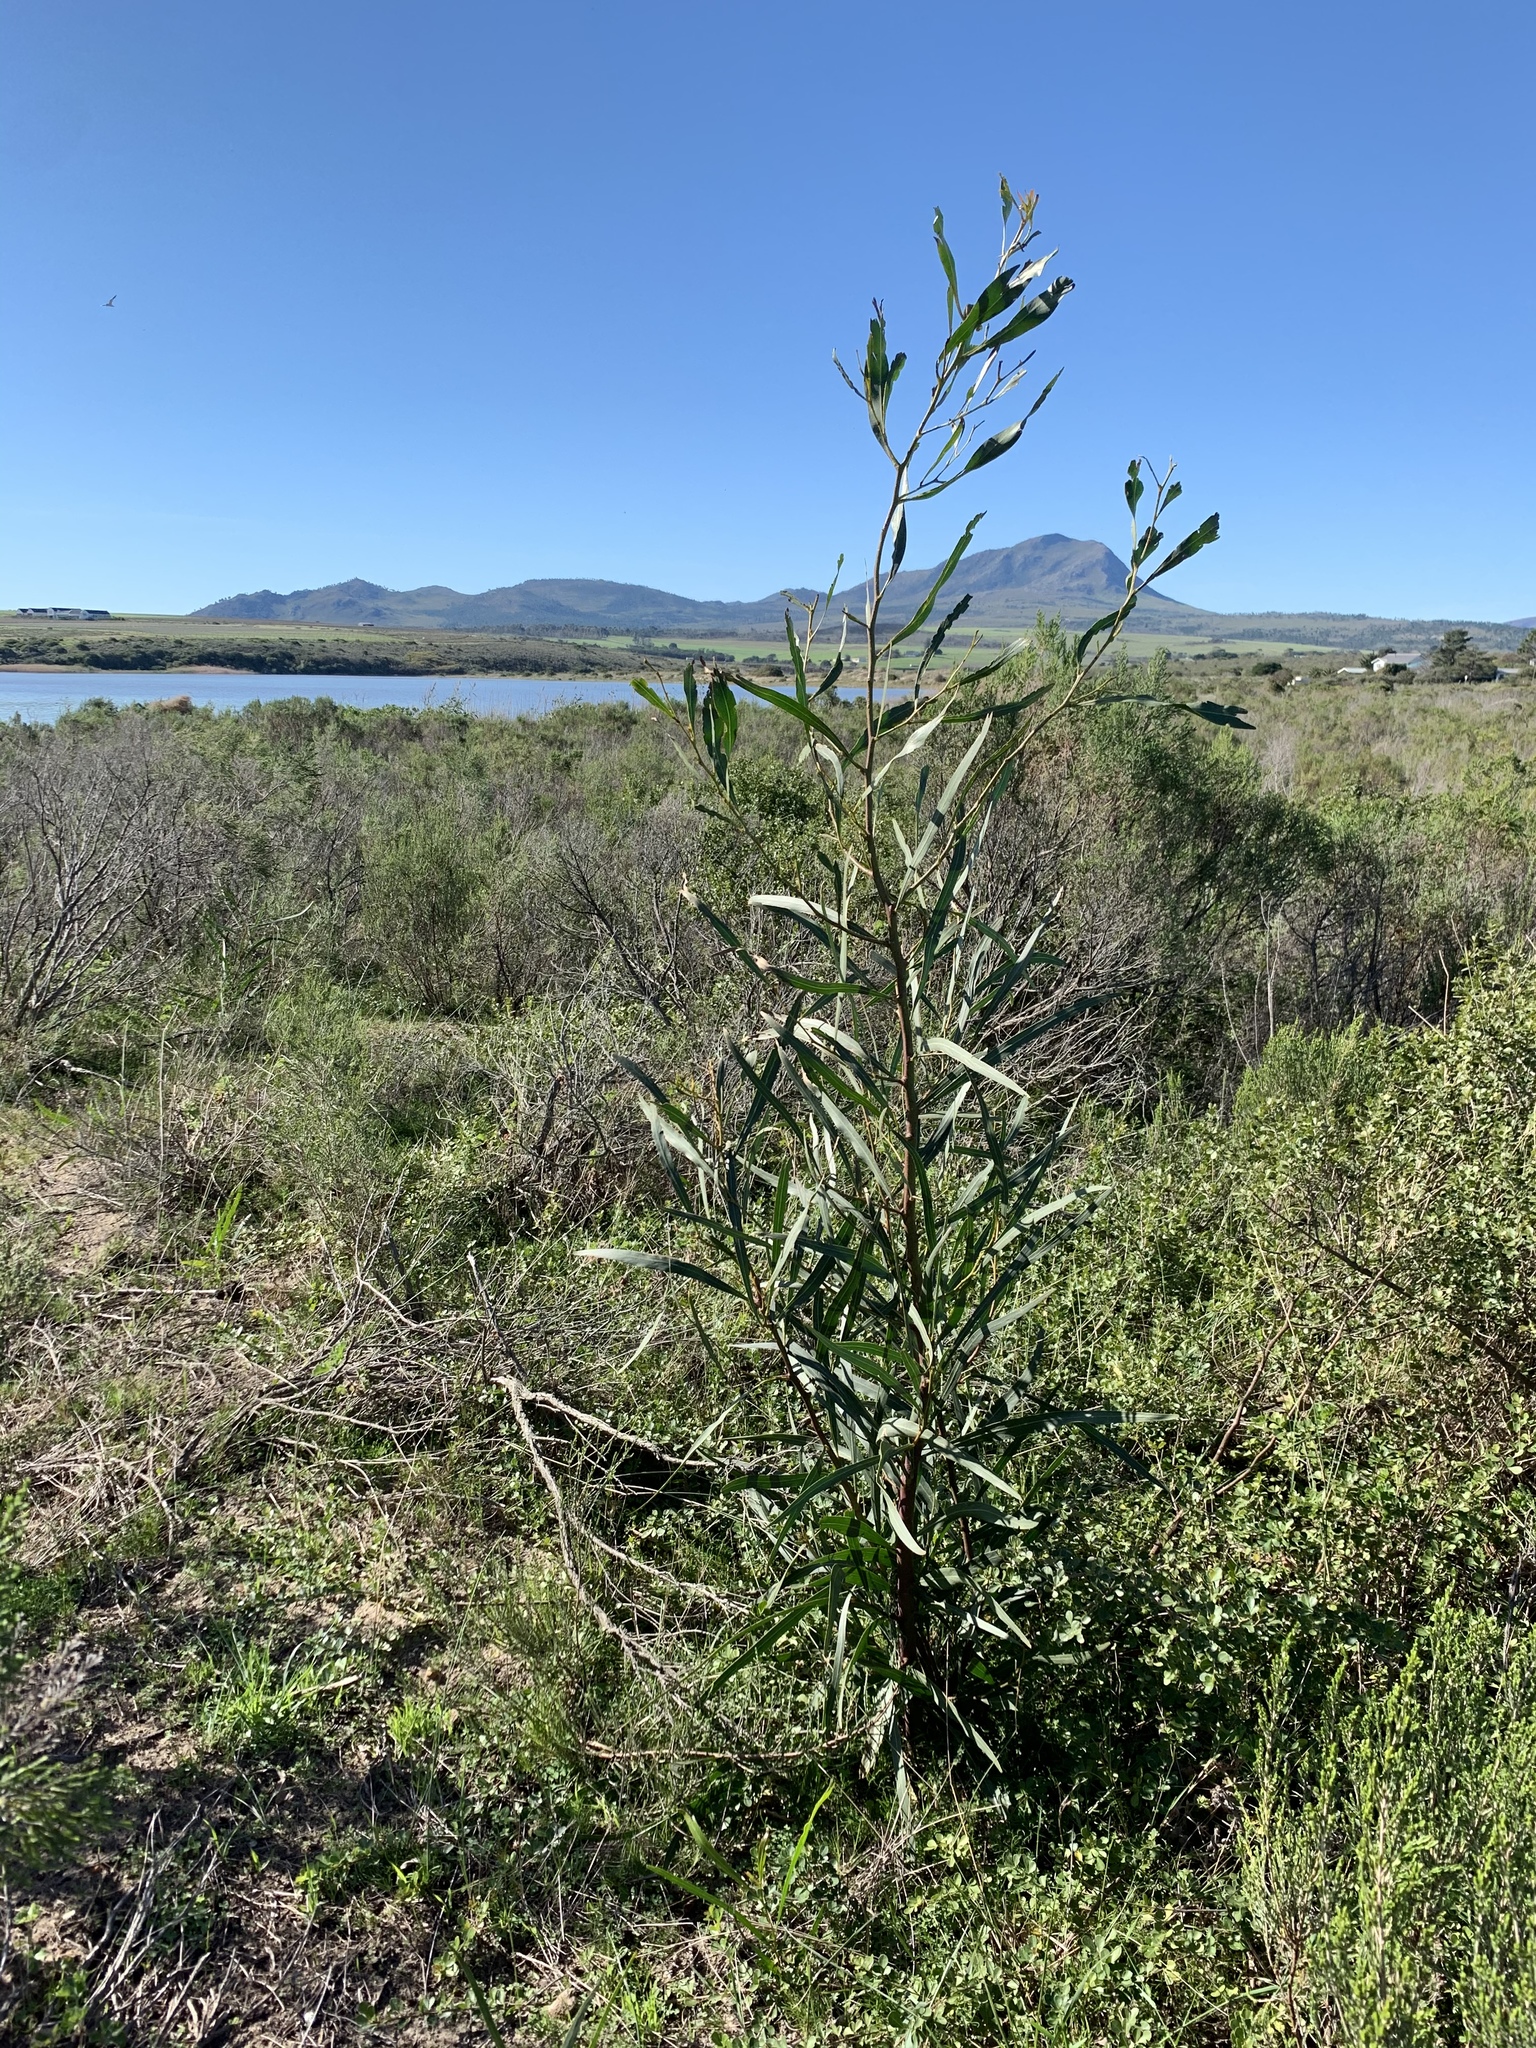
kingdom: Plantae
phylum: Tracheophyta
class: Magnoliopsida
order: Fabales
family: Fabaceae
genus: Acacia
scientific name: Acacia saligna
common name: Orange wattle
